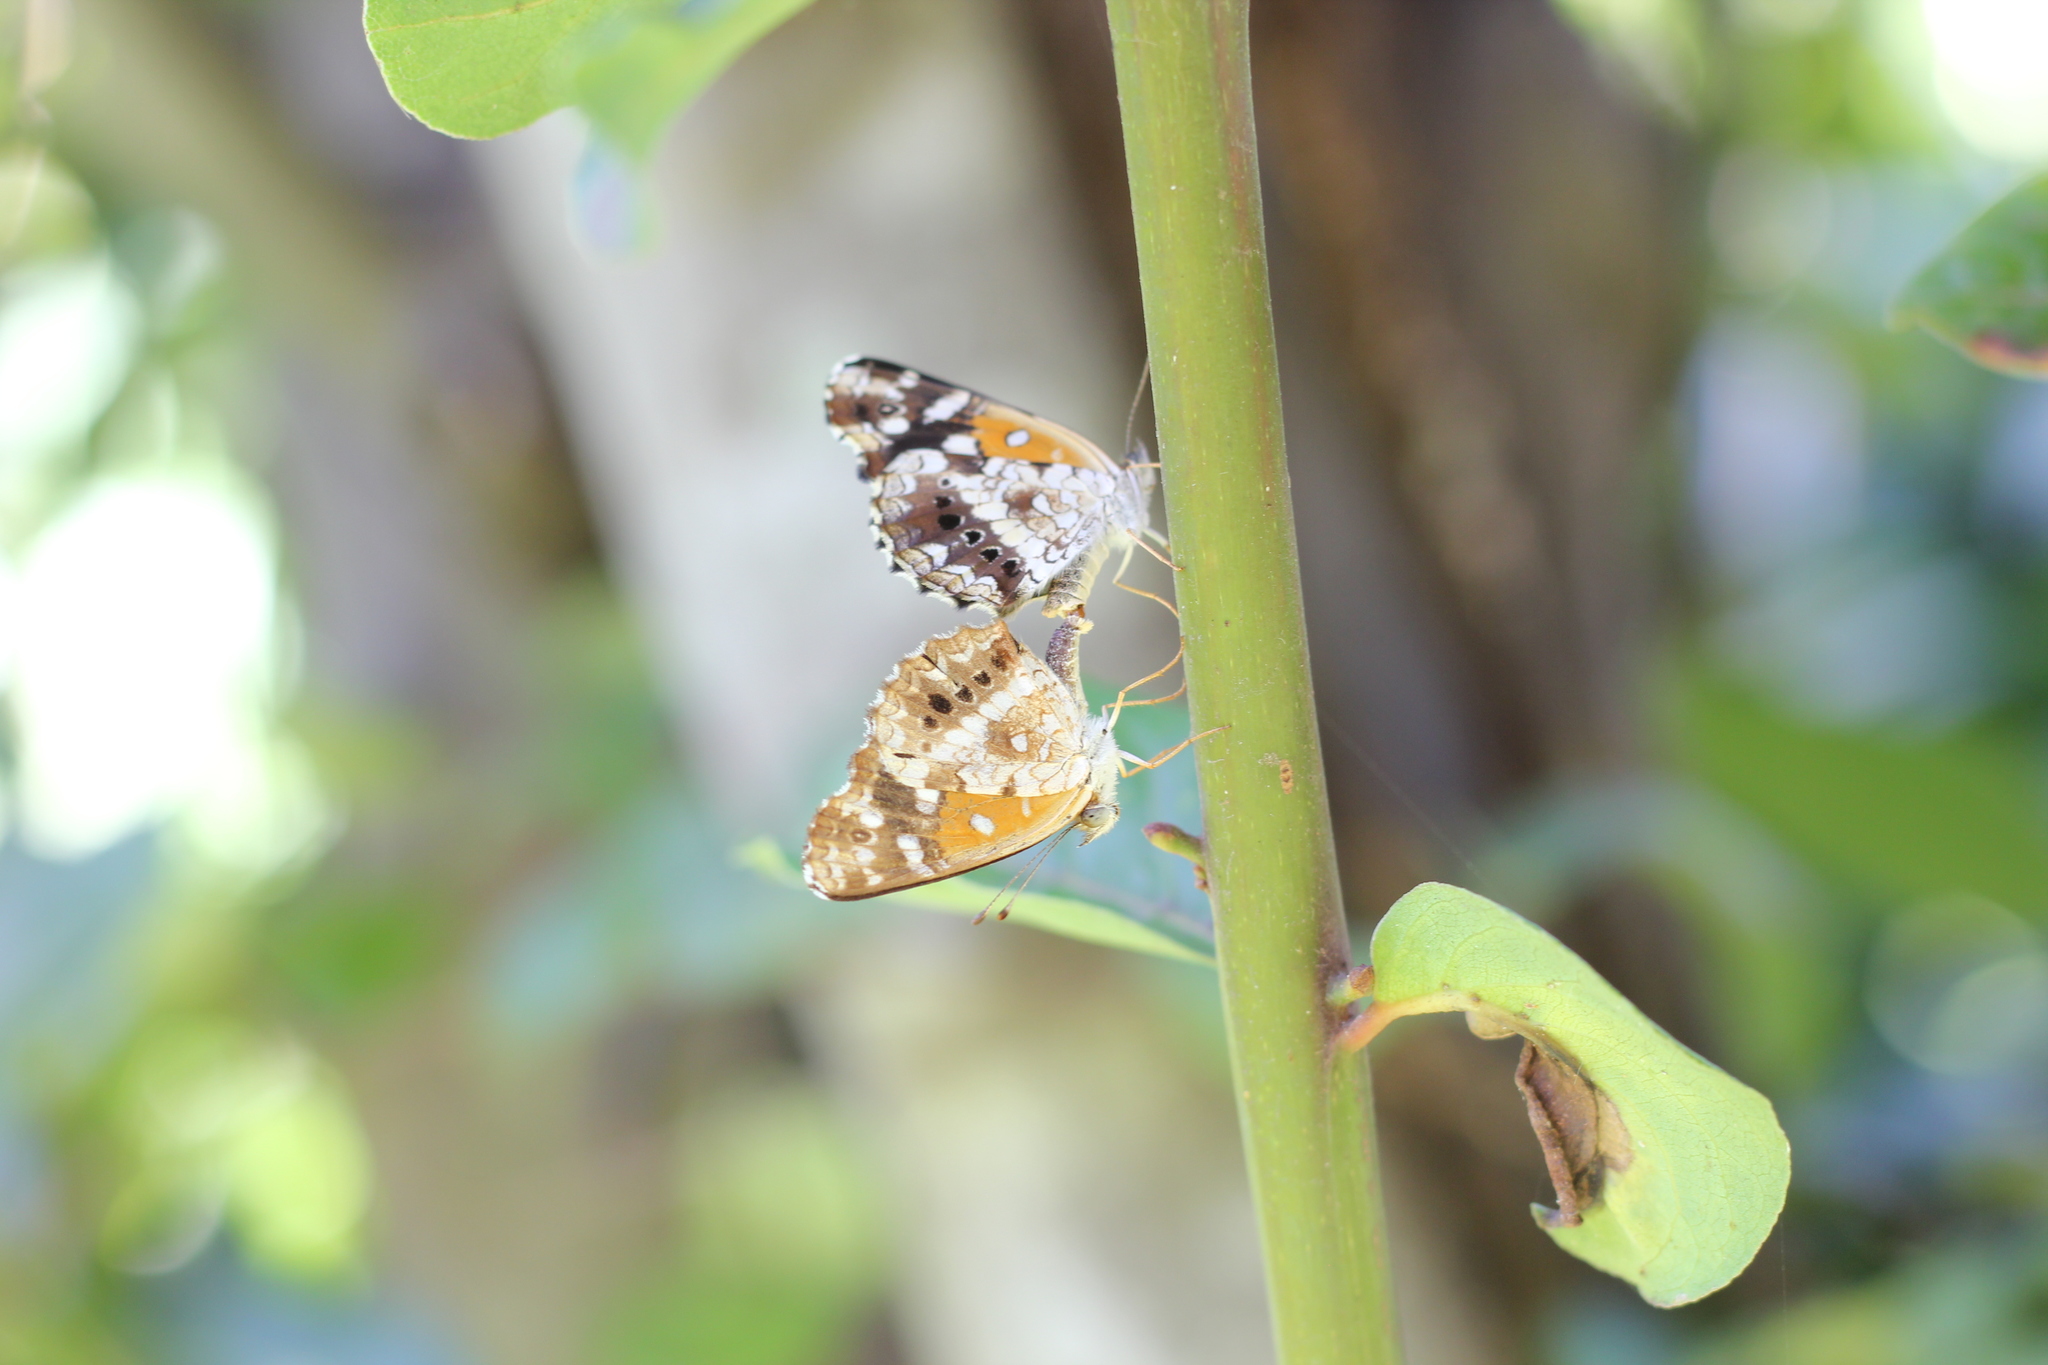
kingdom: Animalia
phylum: Arthropoda
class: Insecta
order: Lepidoptera
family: Nymphalidae
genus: Ortilia
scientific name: Ortilia ithra
